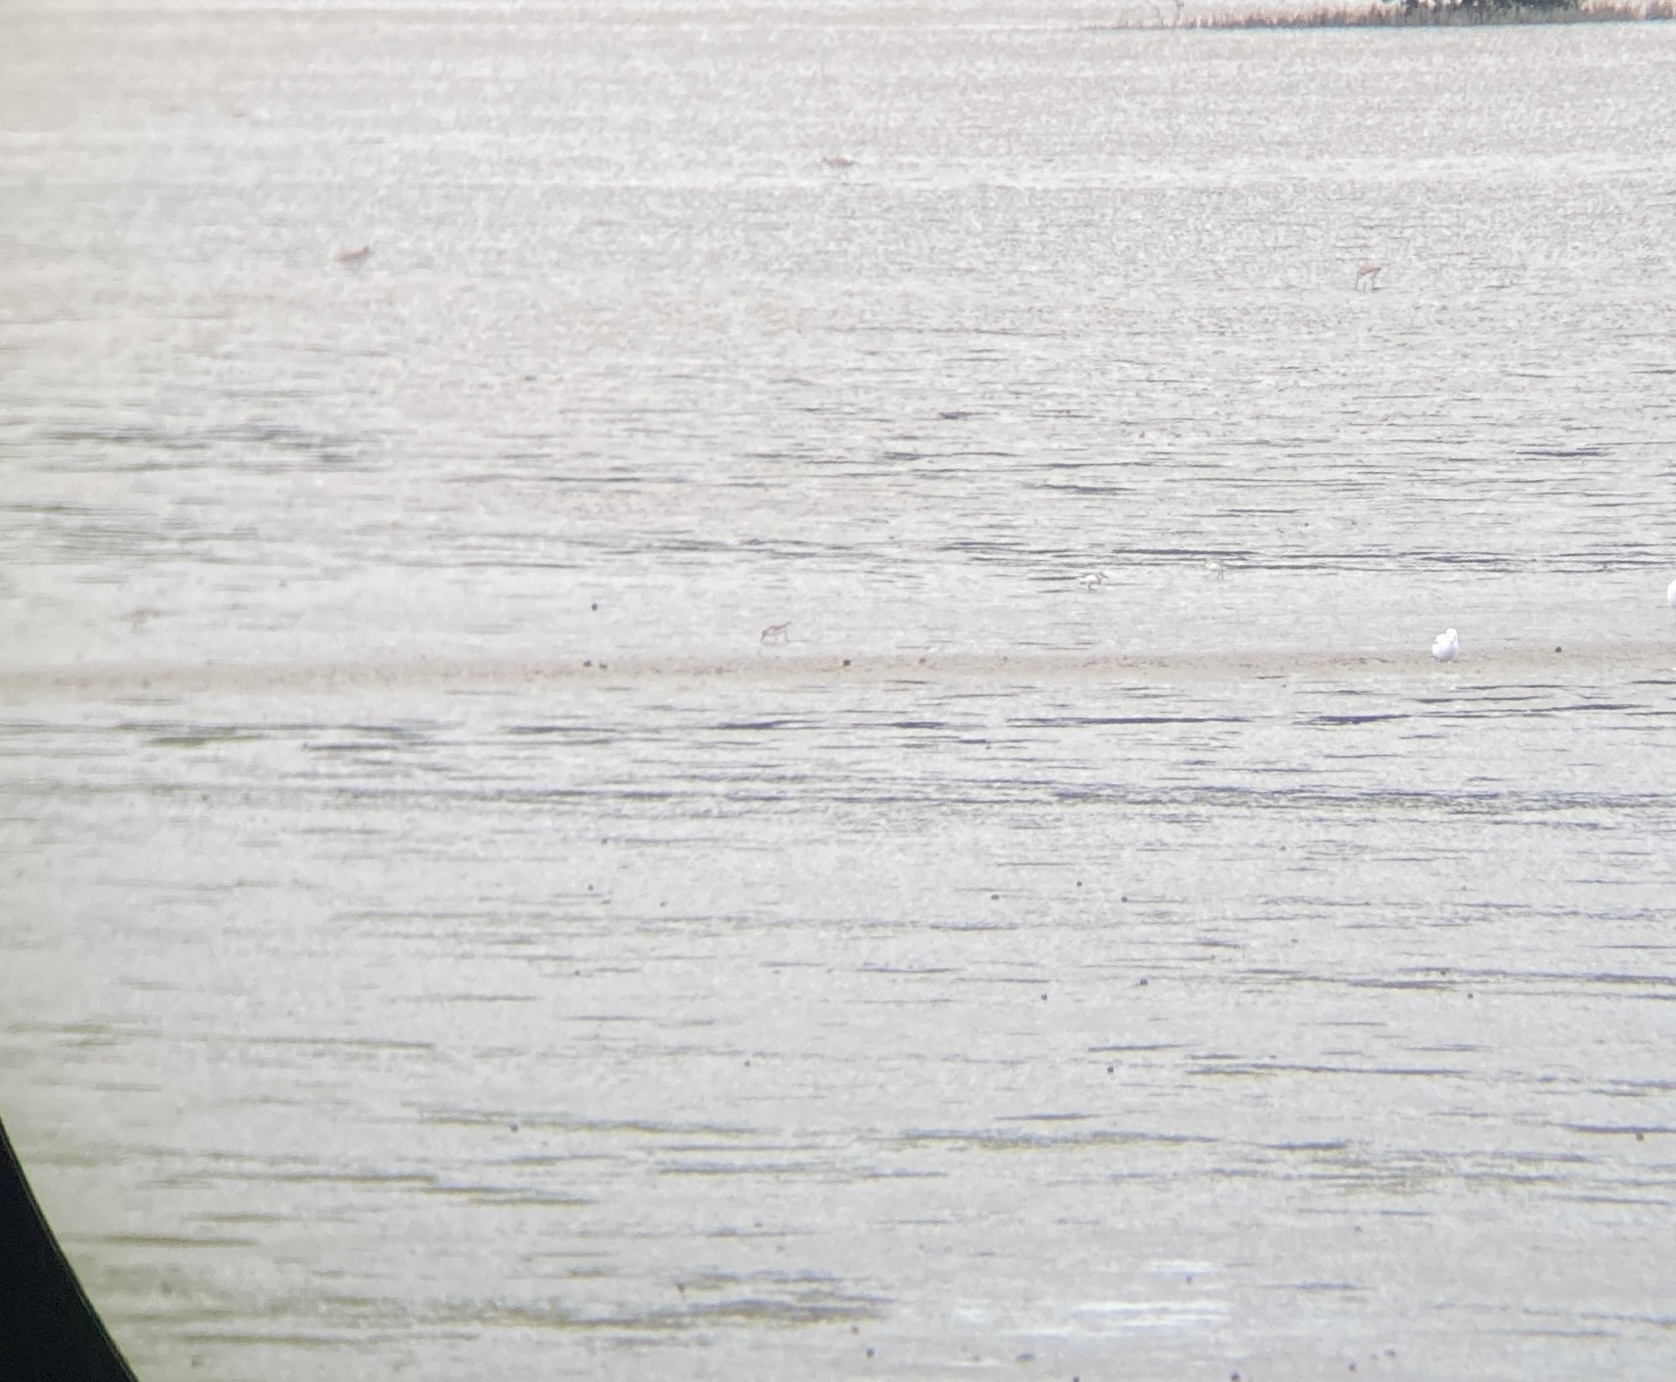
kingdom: Animalia
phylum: Chordata
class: Aves
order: Charadriiformes
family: Scolopacidae
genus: Calidris
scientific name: Calidris falcinellus
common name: Broad-billed sandpiper
